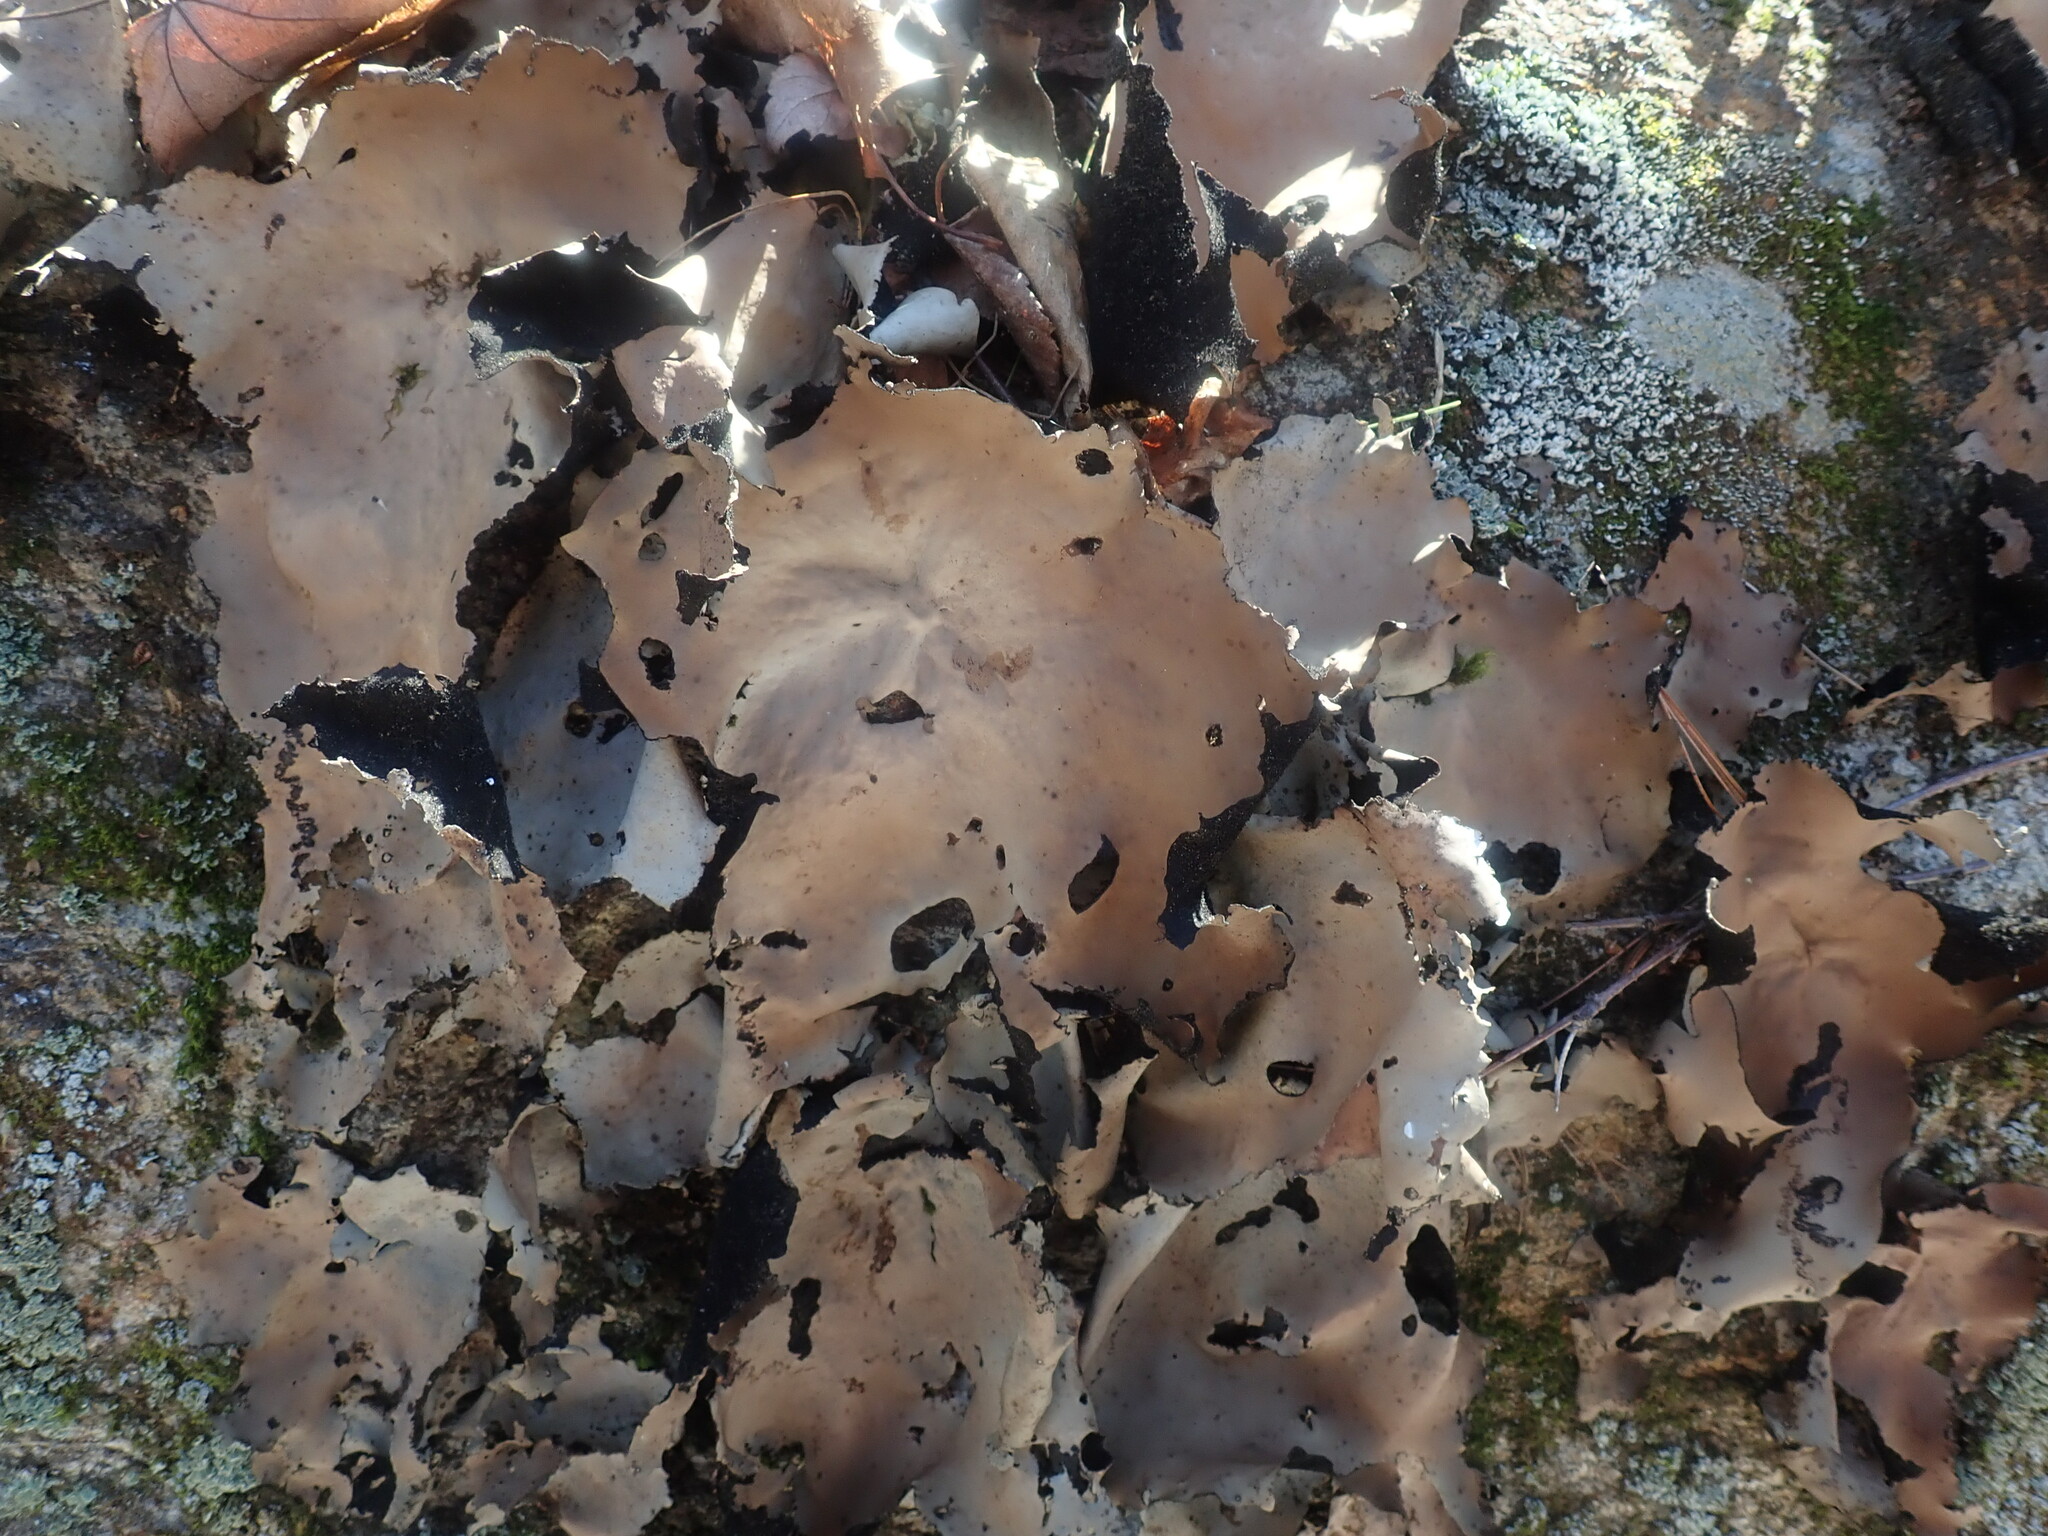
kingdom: Fungi
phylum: Ascomycota
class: Lecanoromycetes
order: Umbilicariales
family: Umbilicariaceae
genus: Umbilicaria
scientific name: Umbilicaria mammulata
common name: Smooth rock tripe
